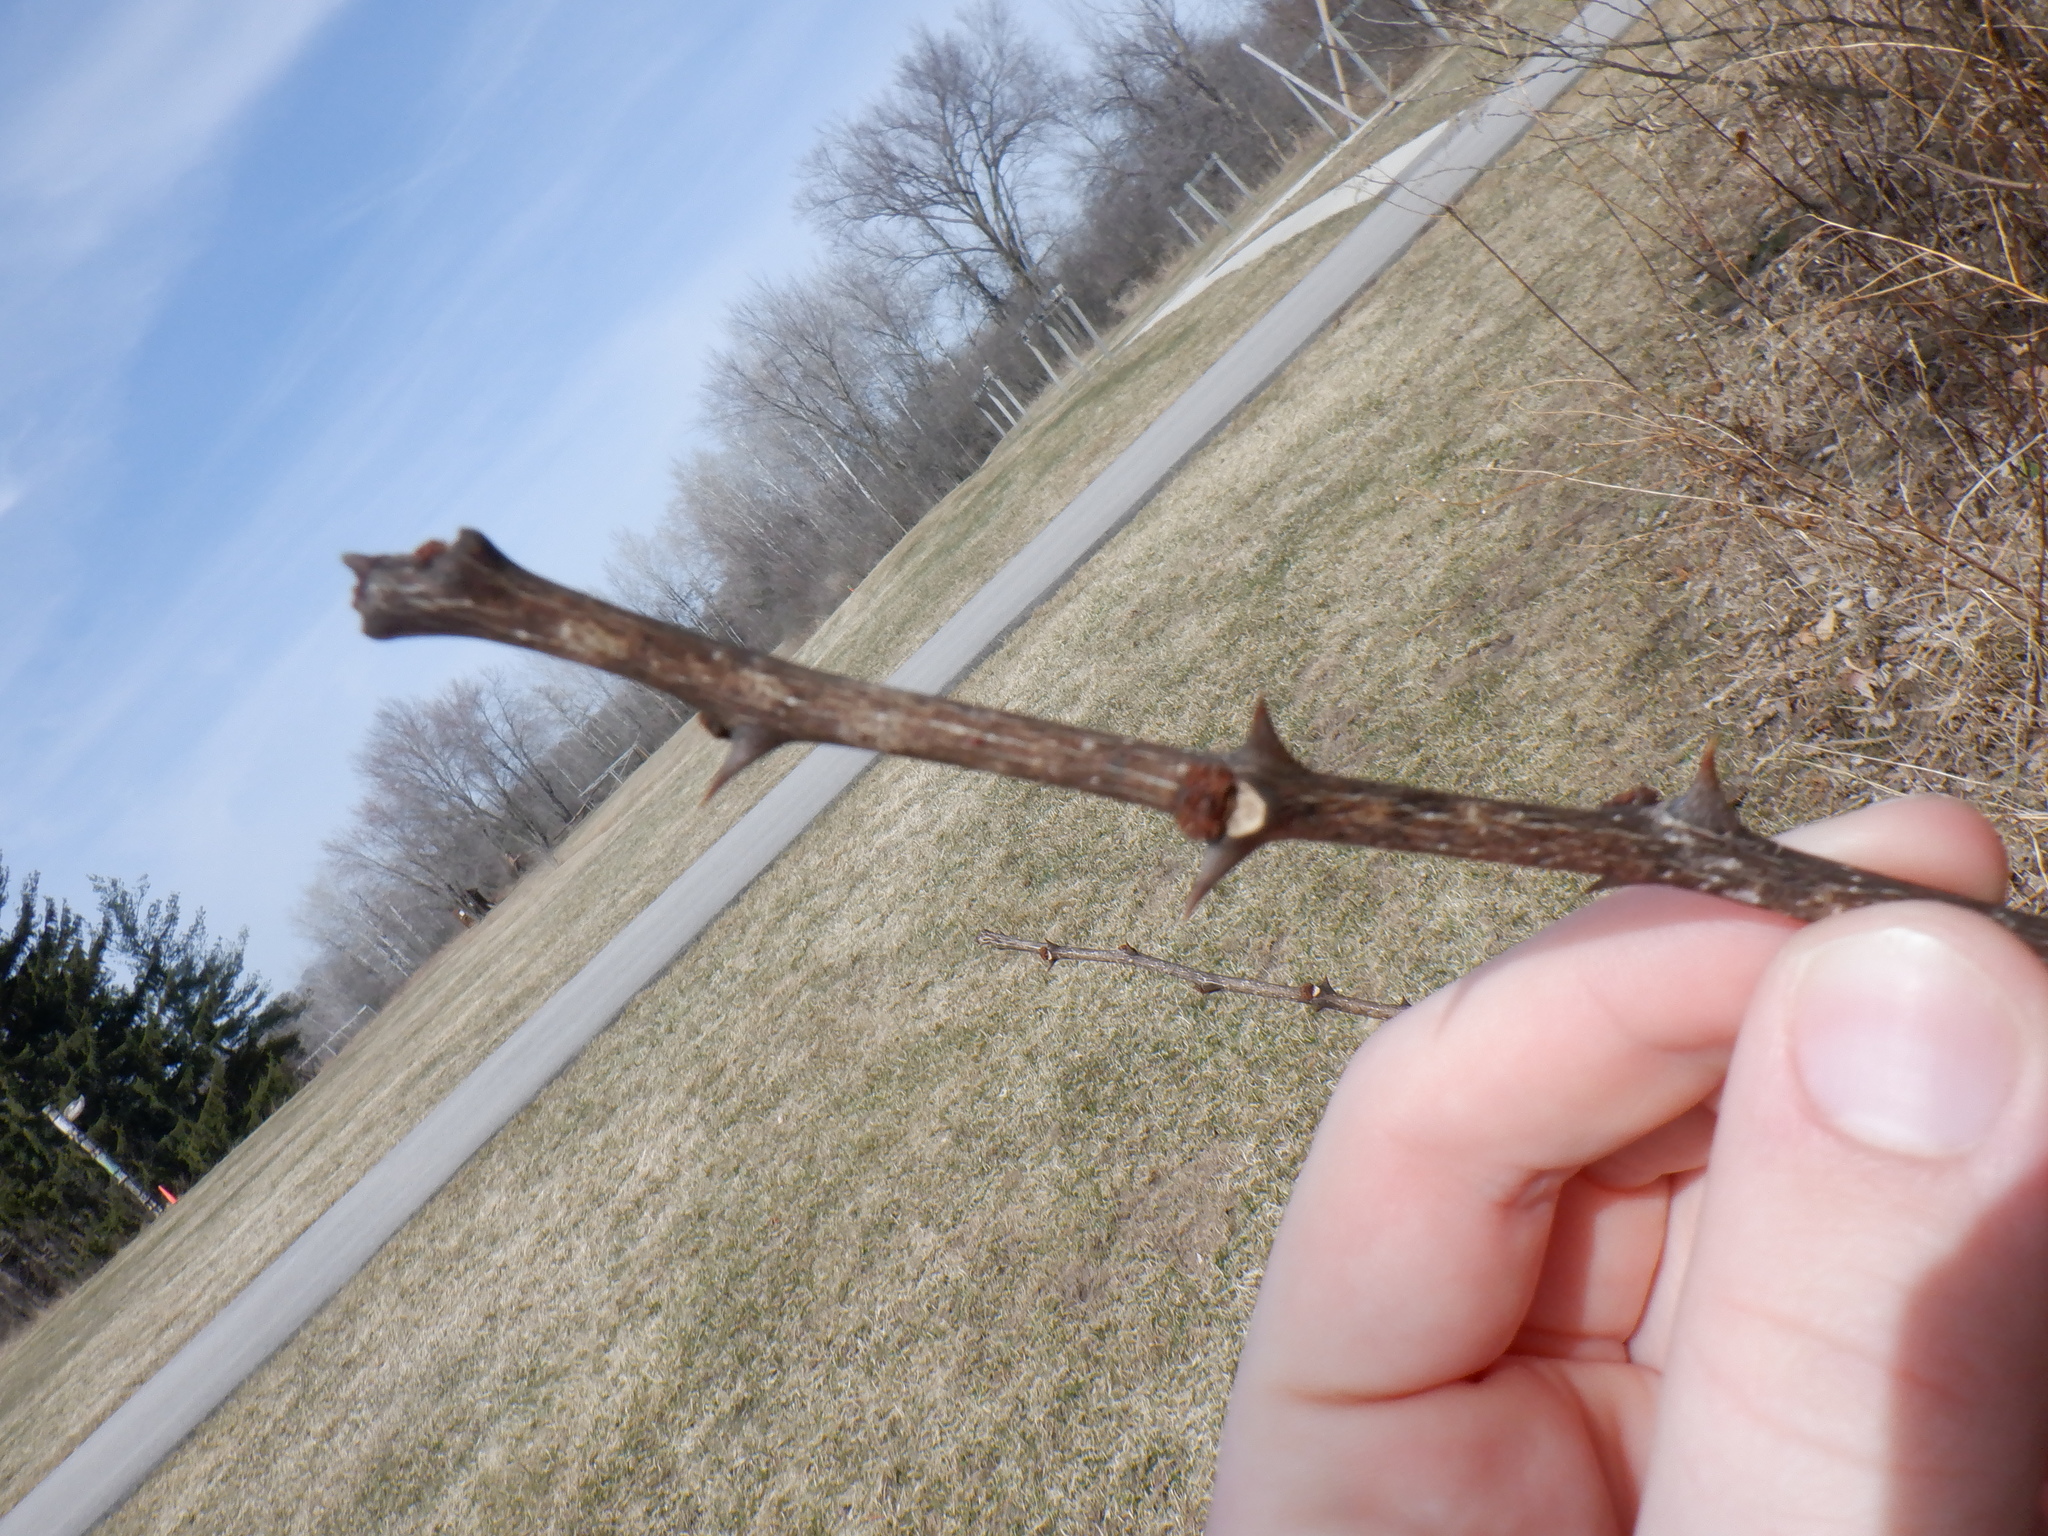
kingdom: Plantae
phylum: Tracheophyta
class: Magnoliopsida
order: Sapindales
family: Rutaceae
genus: Zanthoxylum
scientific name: Zanthoxylum americanum
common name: Northern prickly-ash
